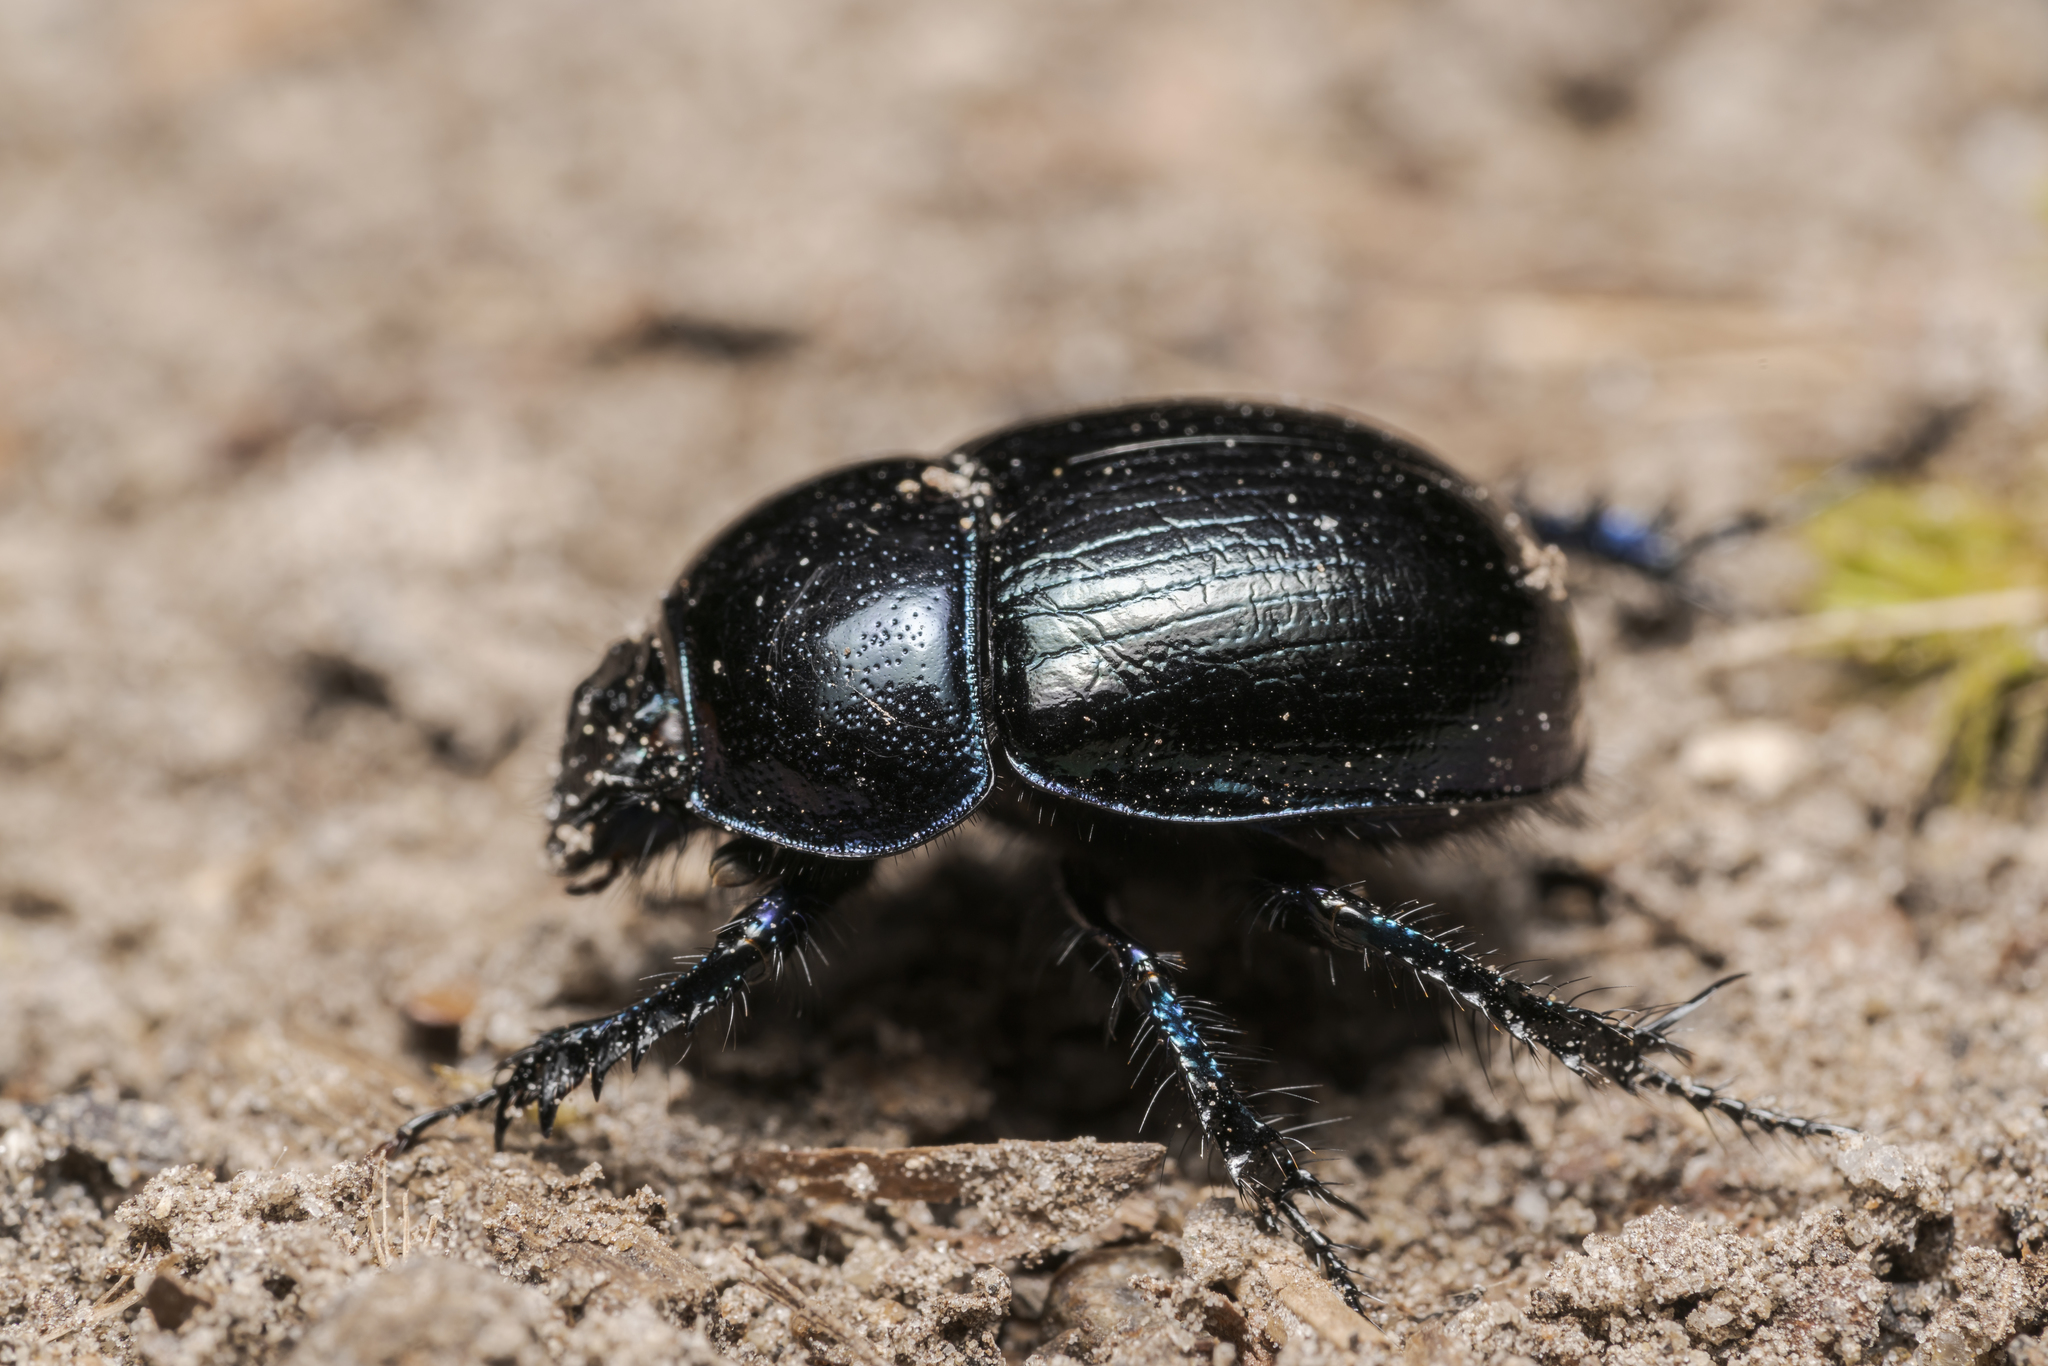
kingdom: Animalia
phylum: Arthropoda
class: Insecta
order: Coleoptera
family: Geotrupidae
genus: Anoplotrupes
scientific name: Anoplotrupes stercorosus
